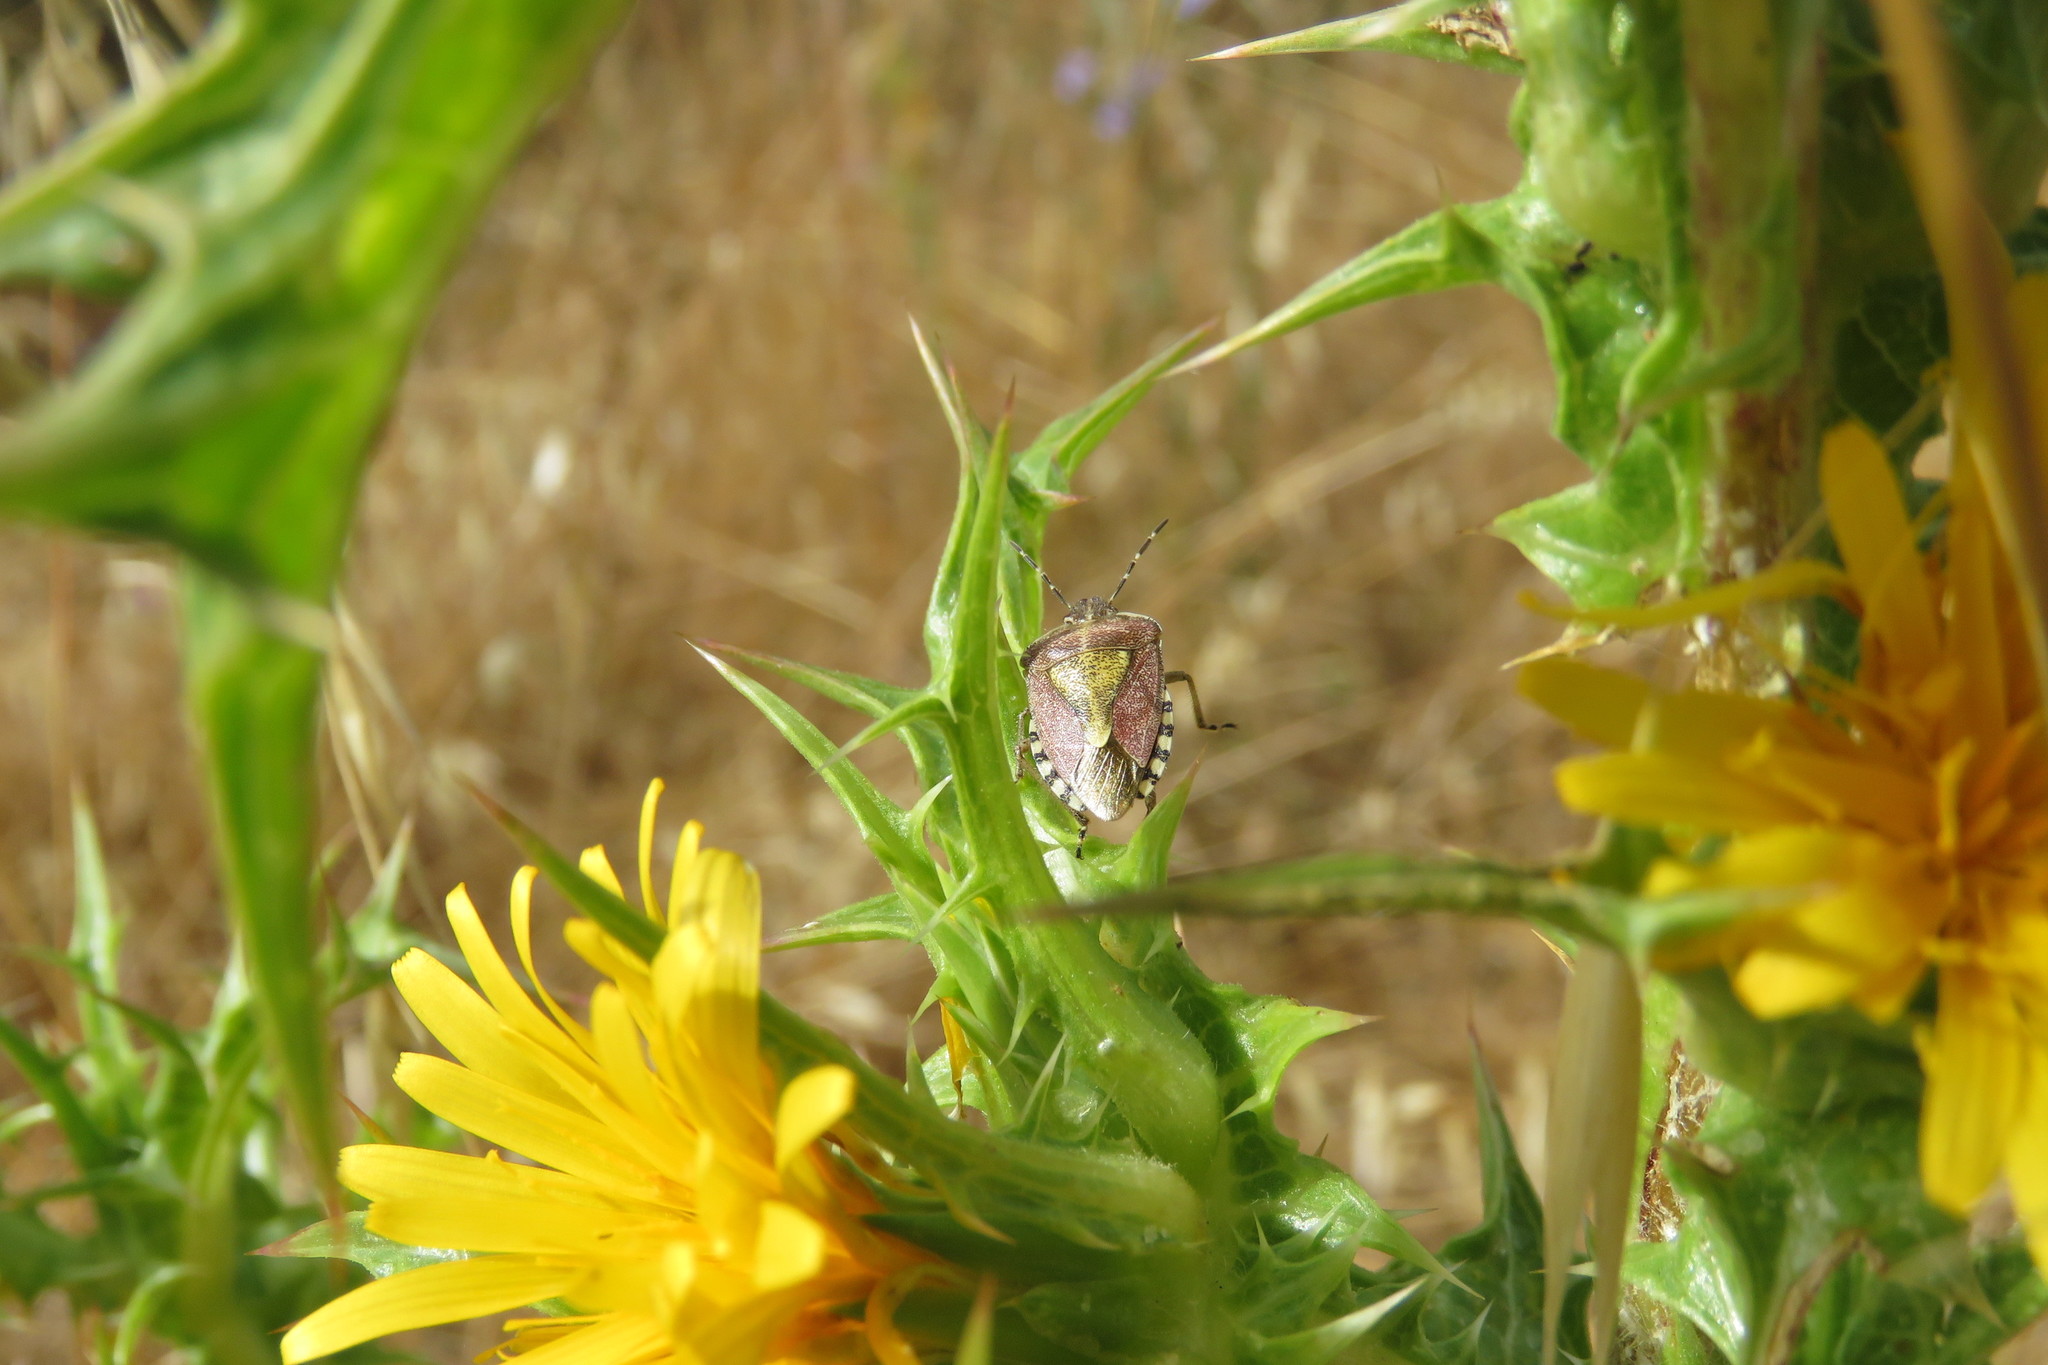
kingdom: Animalia
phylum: Arthropoda
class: Insecta
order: Hemiptera
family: Pentatomidae
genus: Dolycoris
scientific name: Dolycoris baccarum
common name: Sloe bug
